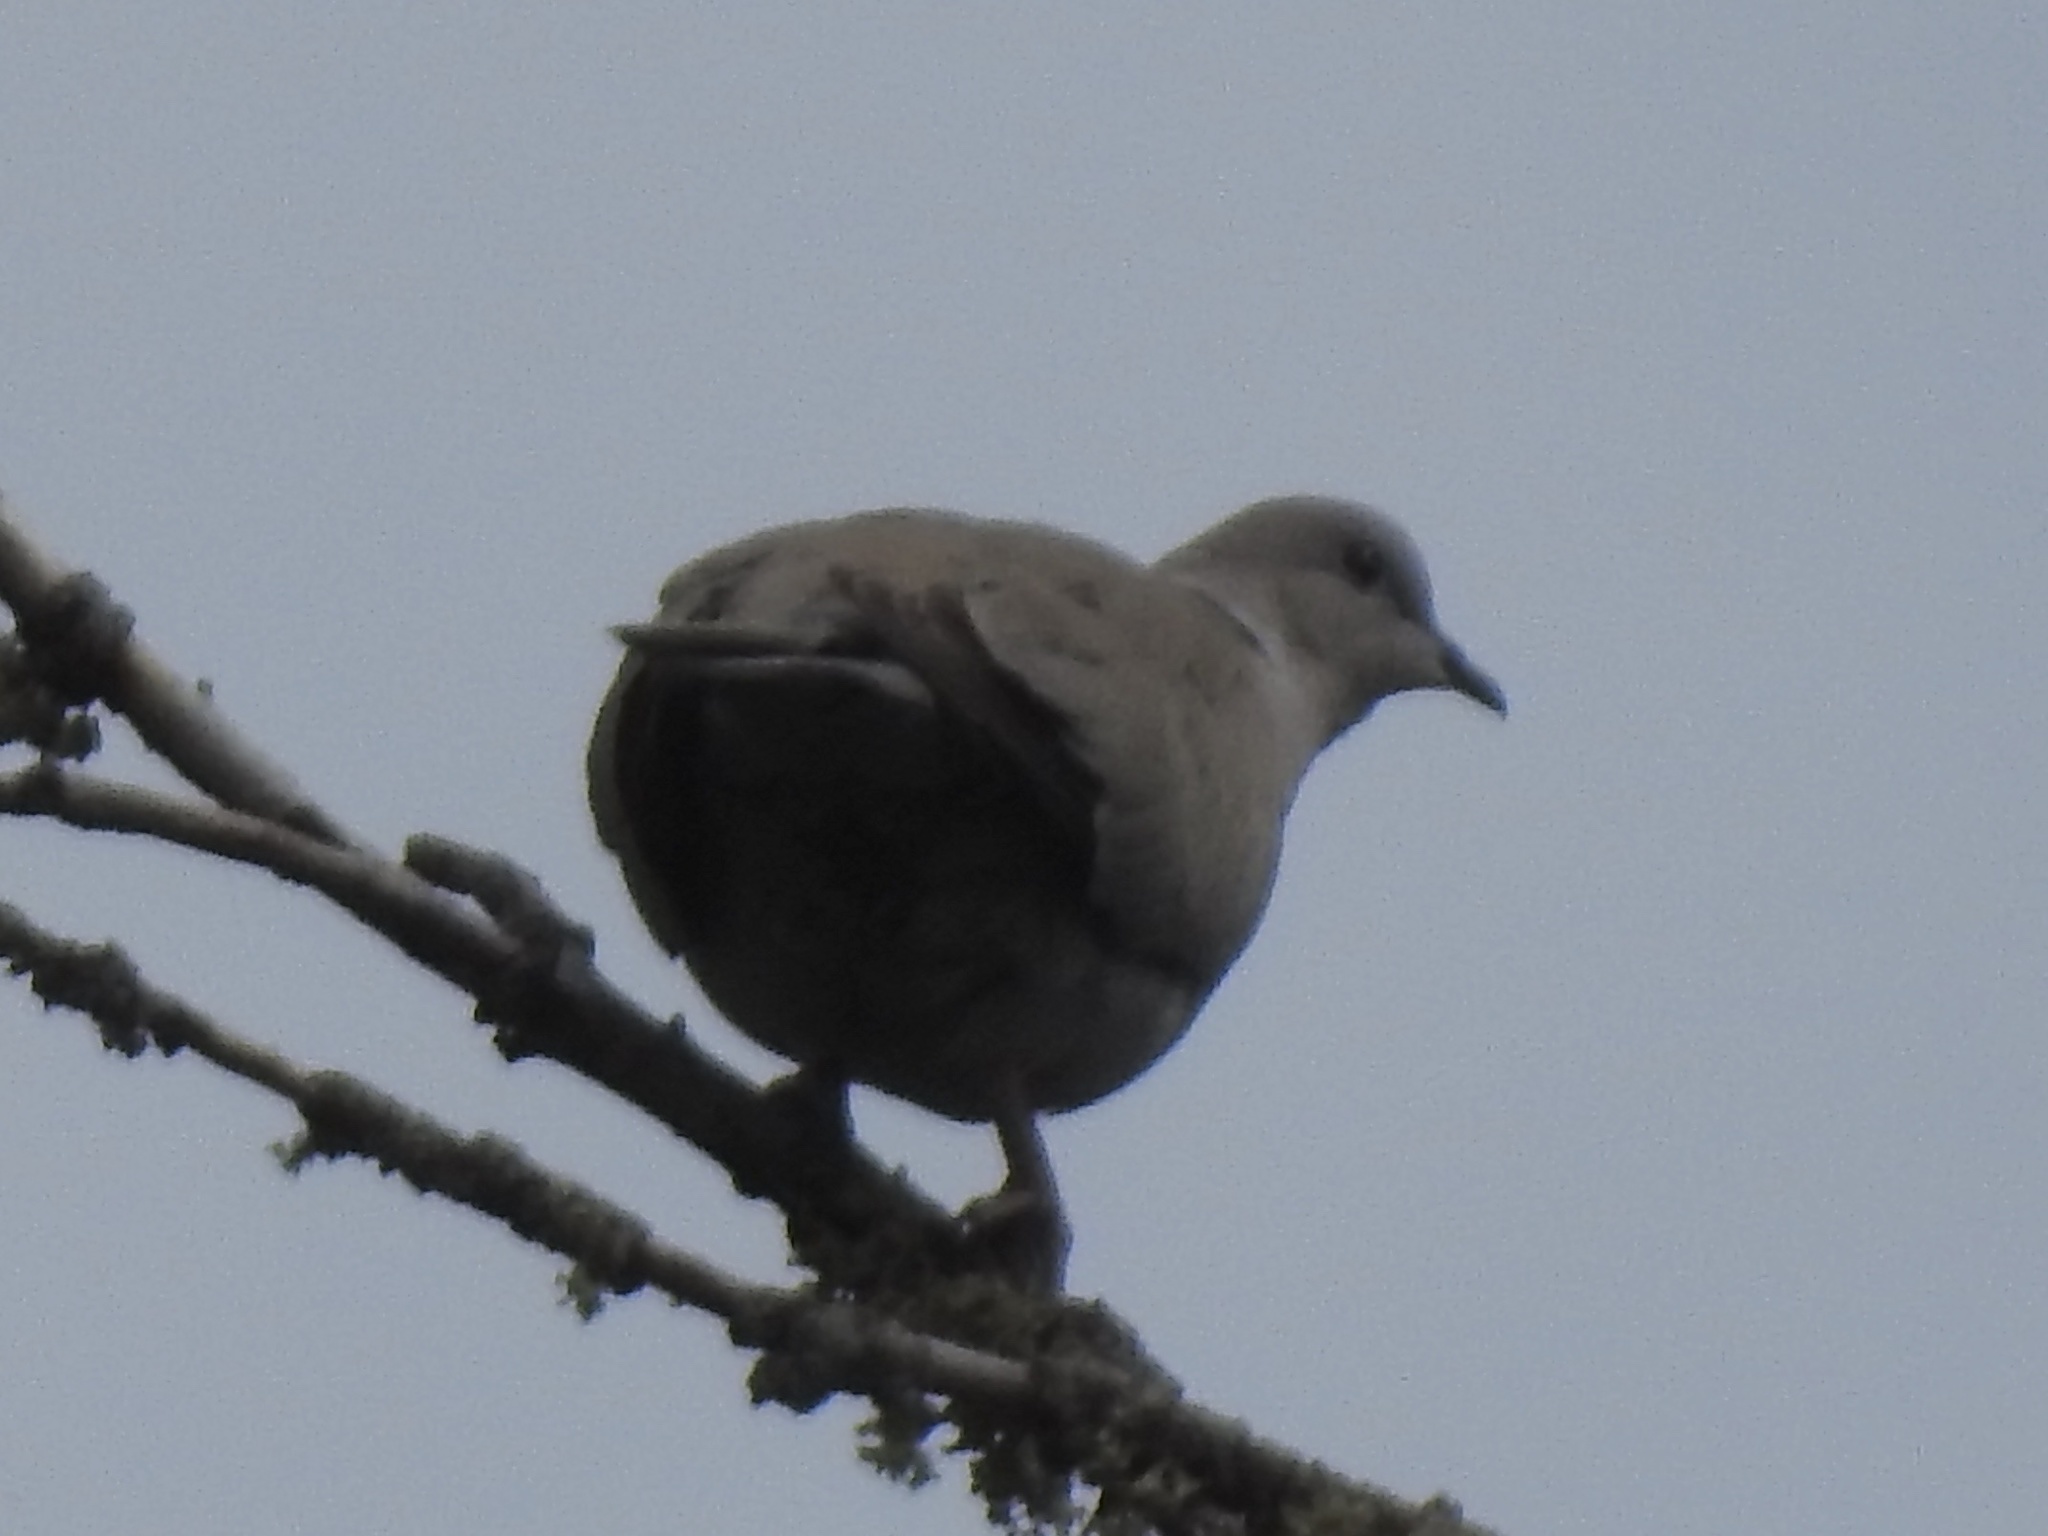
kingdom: Animalia
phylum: Chordata
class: Aves
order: Columbiformes
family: Columbidae
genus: Streptopelia
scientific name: Streptopelia decaocto
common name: Eurasian collared dove
